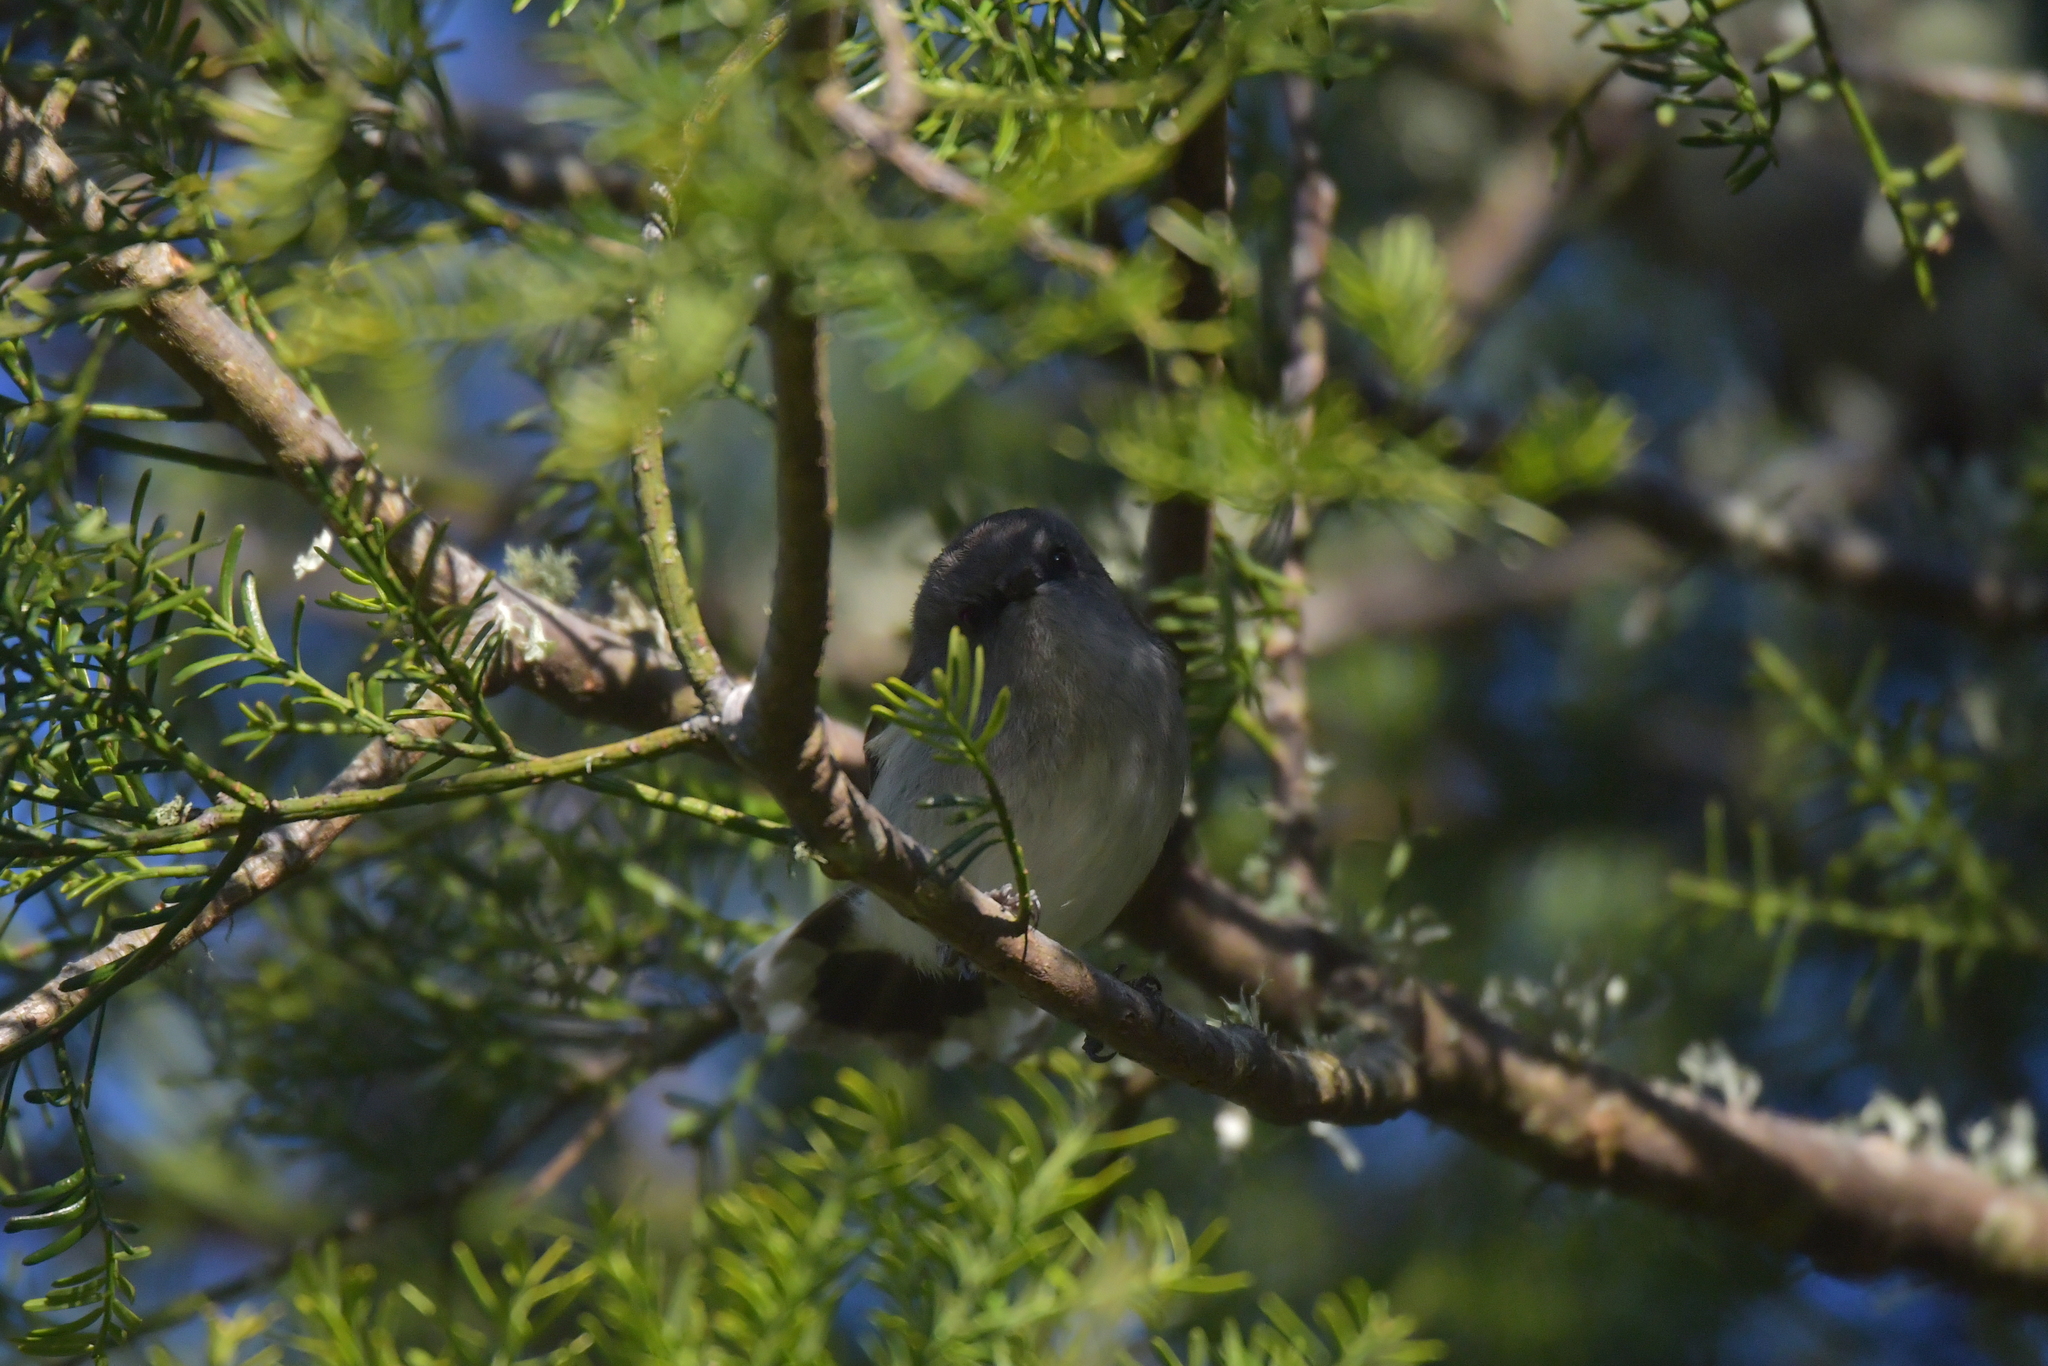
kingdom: Animalia
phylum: Chordata
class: Aves
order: Passeriformes
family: Acanthizidae
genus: Gerygone
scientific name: Gerygone igata
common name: Grey gerygone
